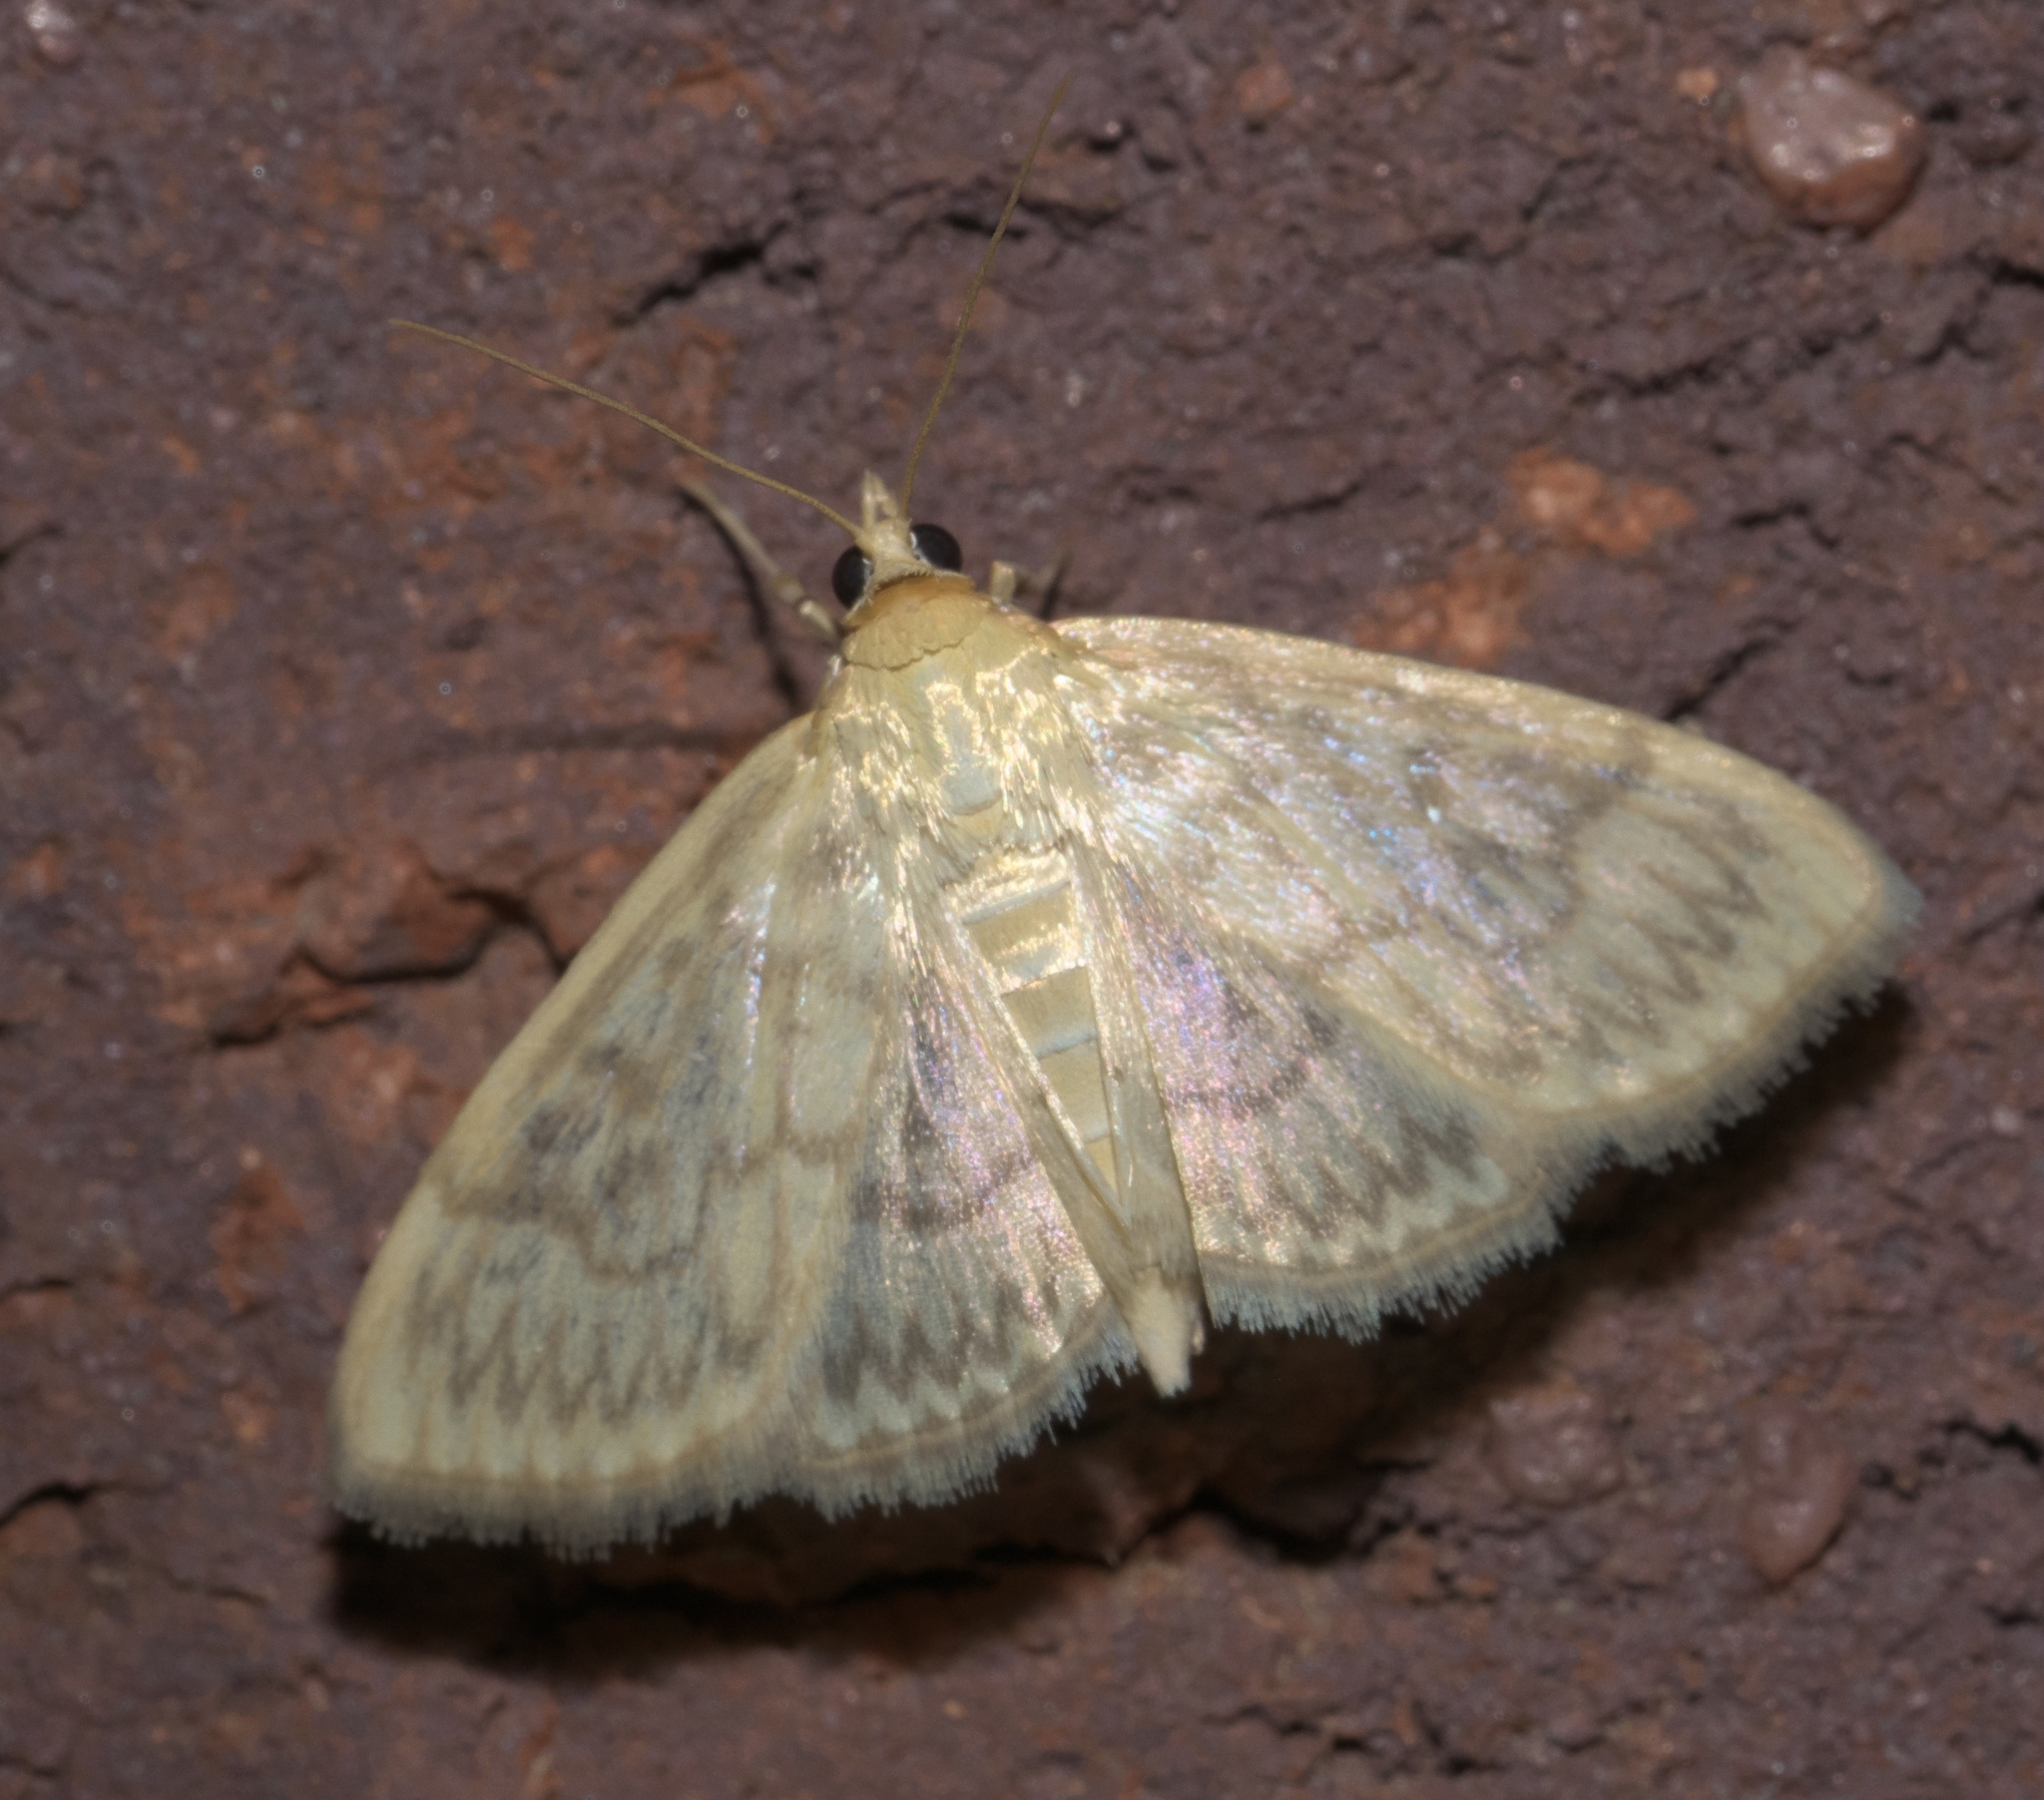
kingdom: Animalia
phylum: Arthropoda
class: Insecta
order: Lepidoptera
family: Crambidae
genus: Crocidophora
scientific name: Crocidophora serratissimalis
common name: Saw-toothed crocidophora moth
